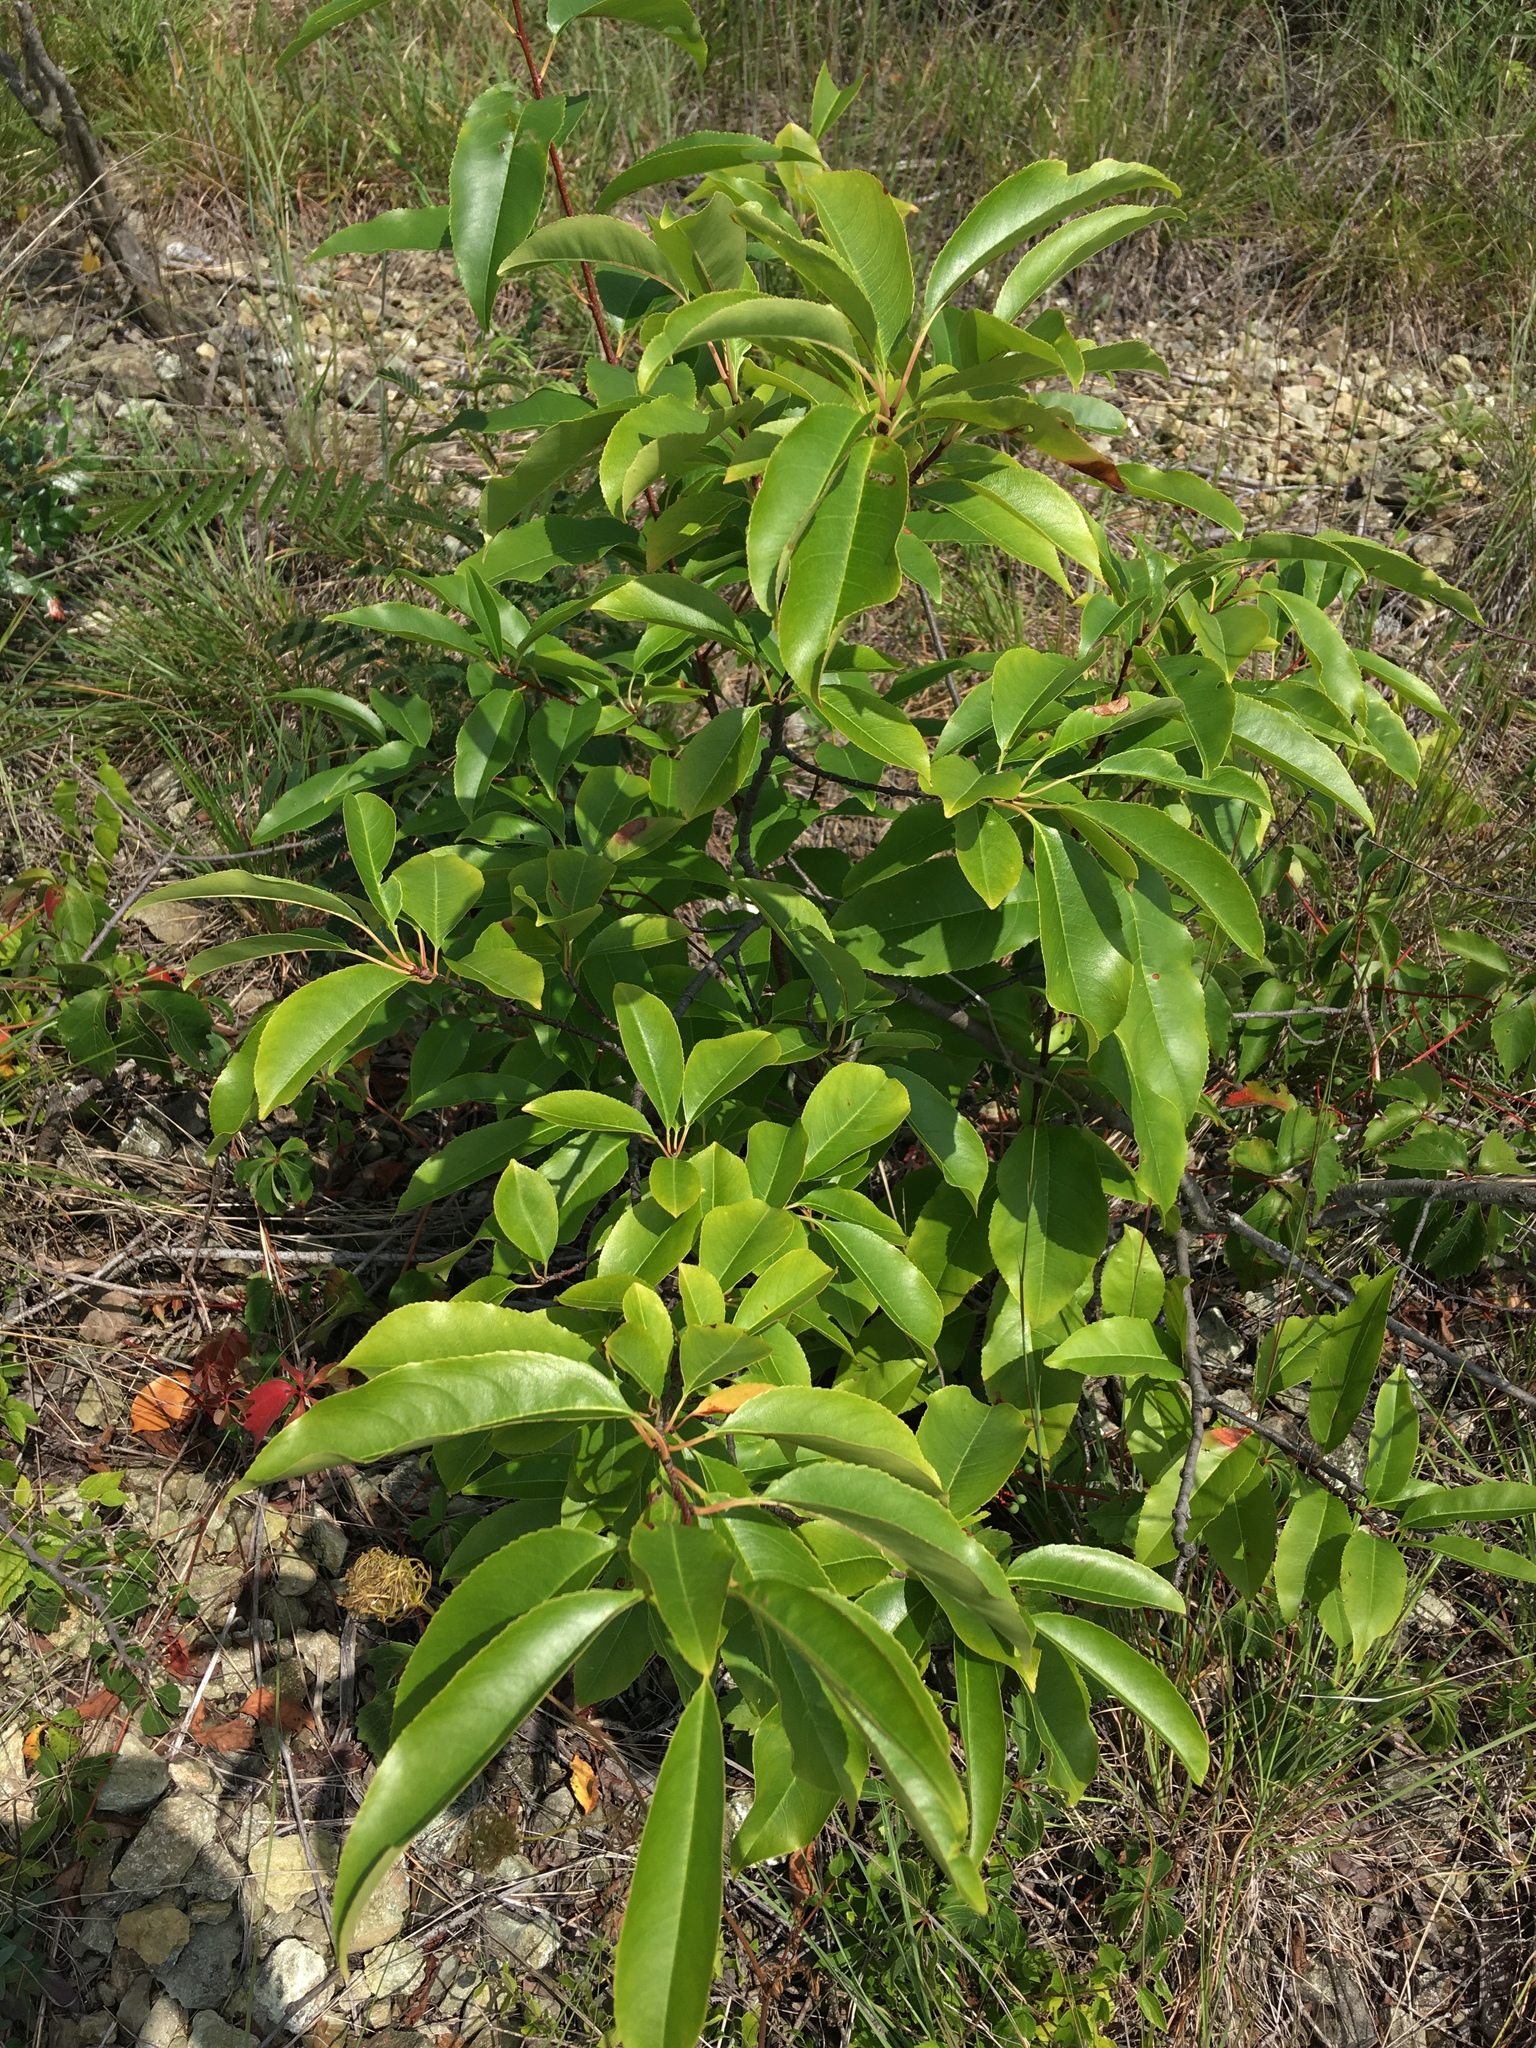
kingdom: Plantae
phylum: Tracheophyta
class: Magnoliopsida
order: Rosales
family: Rosaceae
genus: Prunus
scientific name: Prunus serotina
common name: Black cherry
